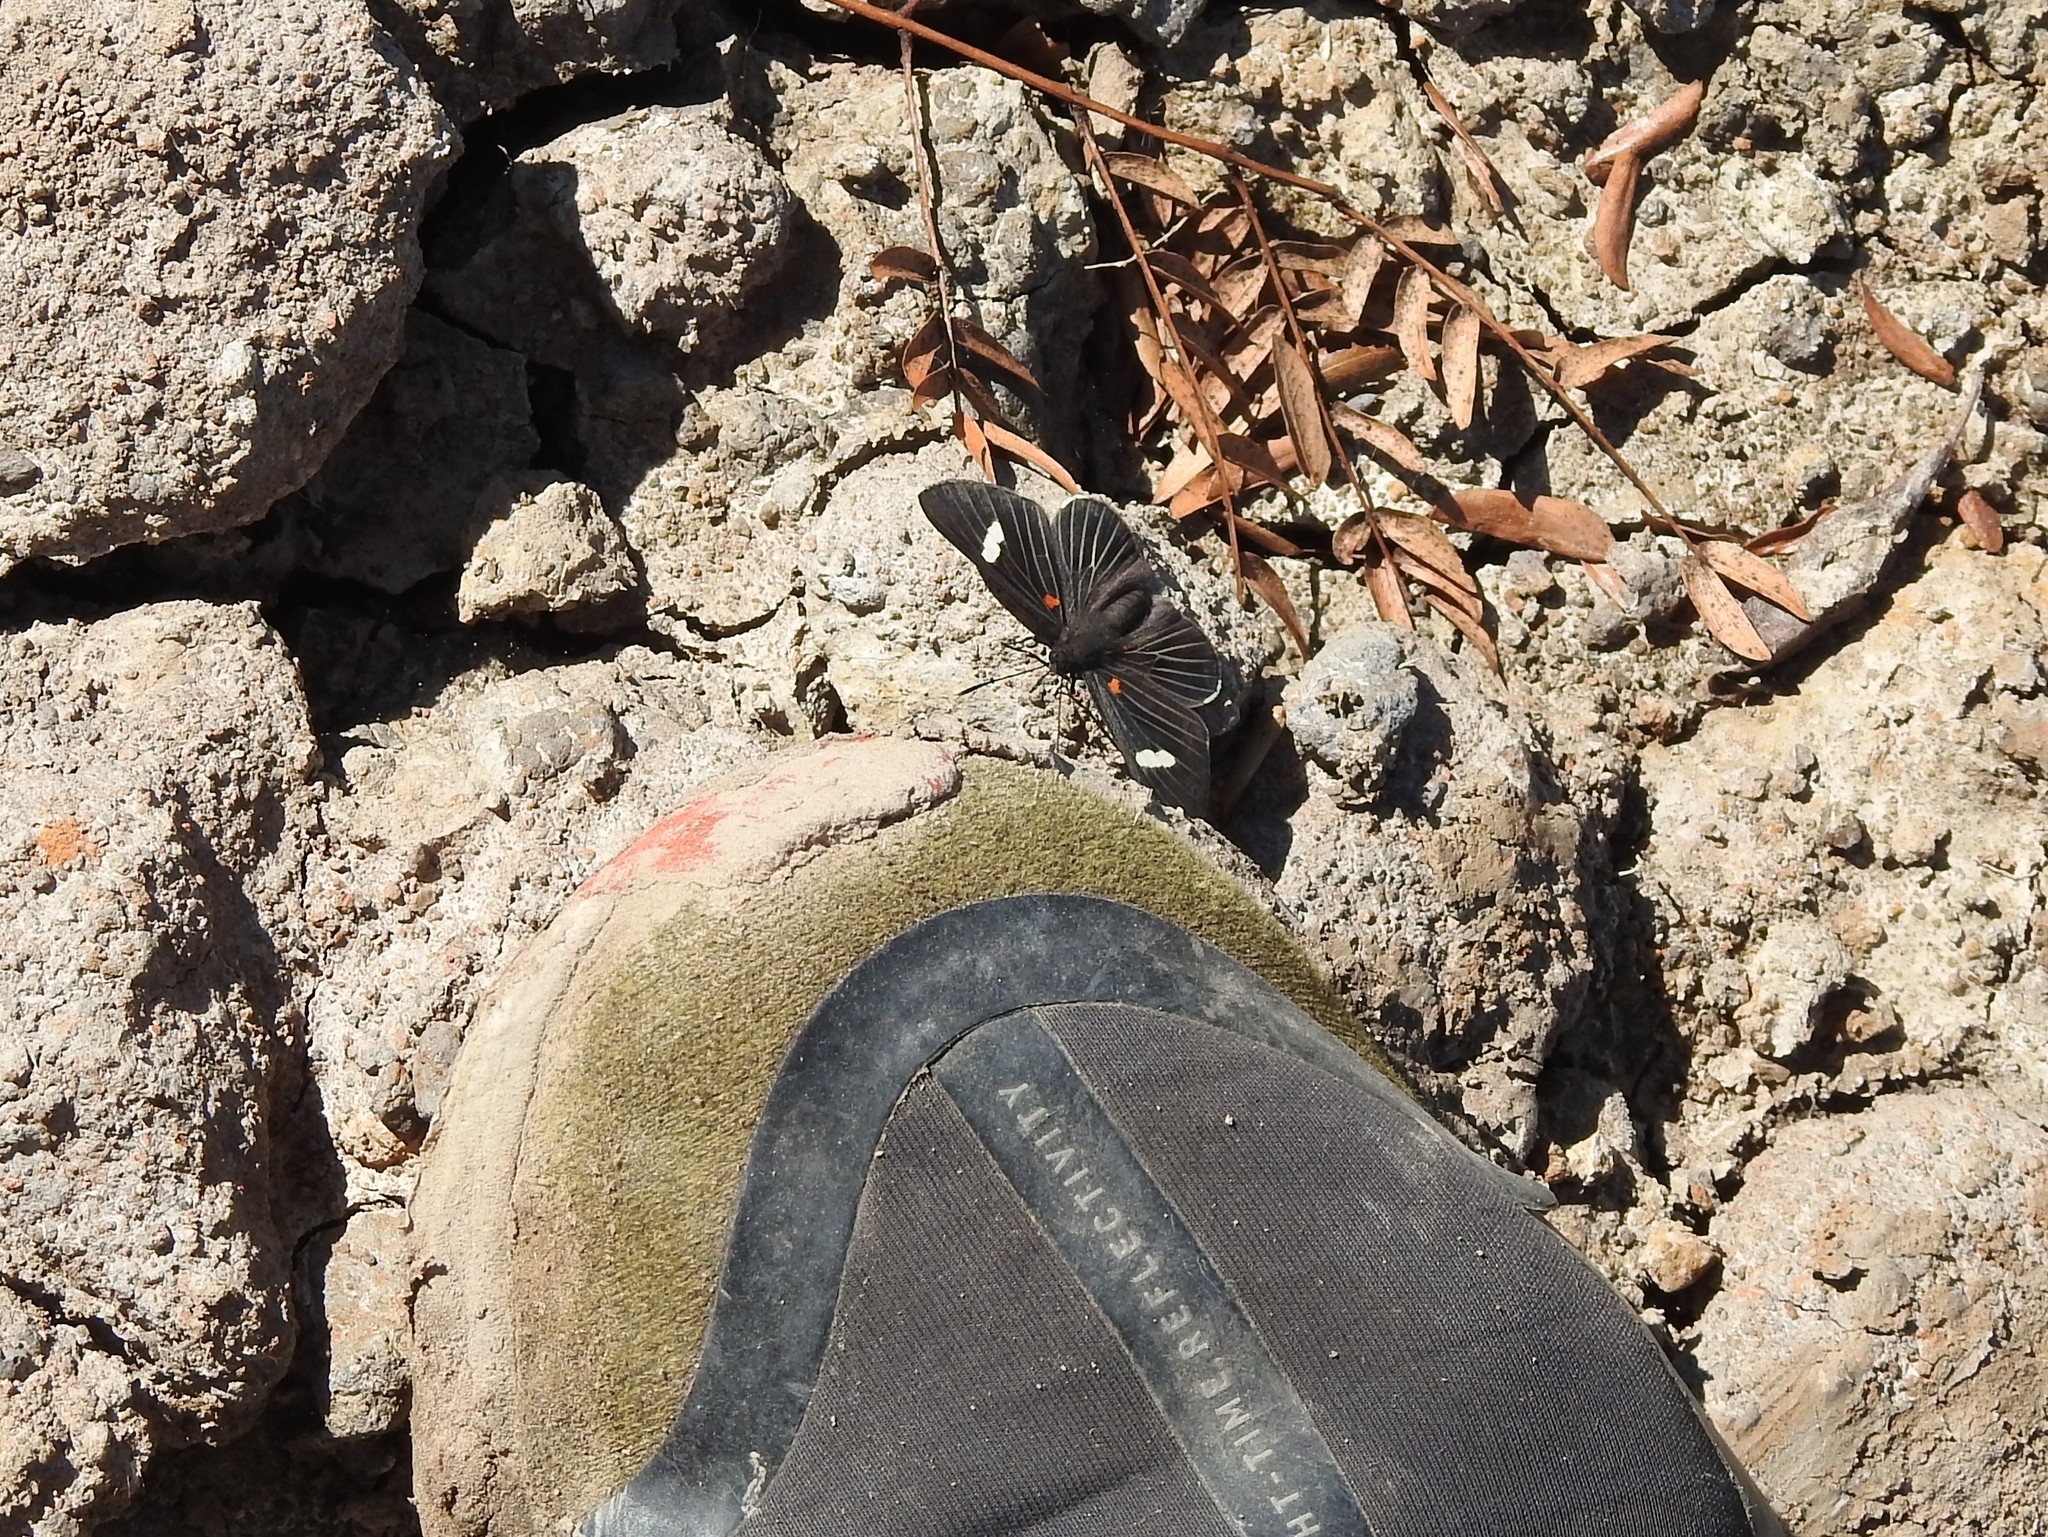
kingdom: Animalia
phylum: Arthropoda
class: Insecta
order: Lepidoptera
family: Lycaenidae
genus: Melanis
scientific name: Melanis aegates
